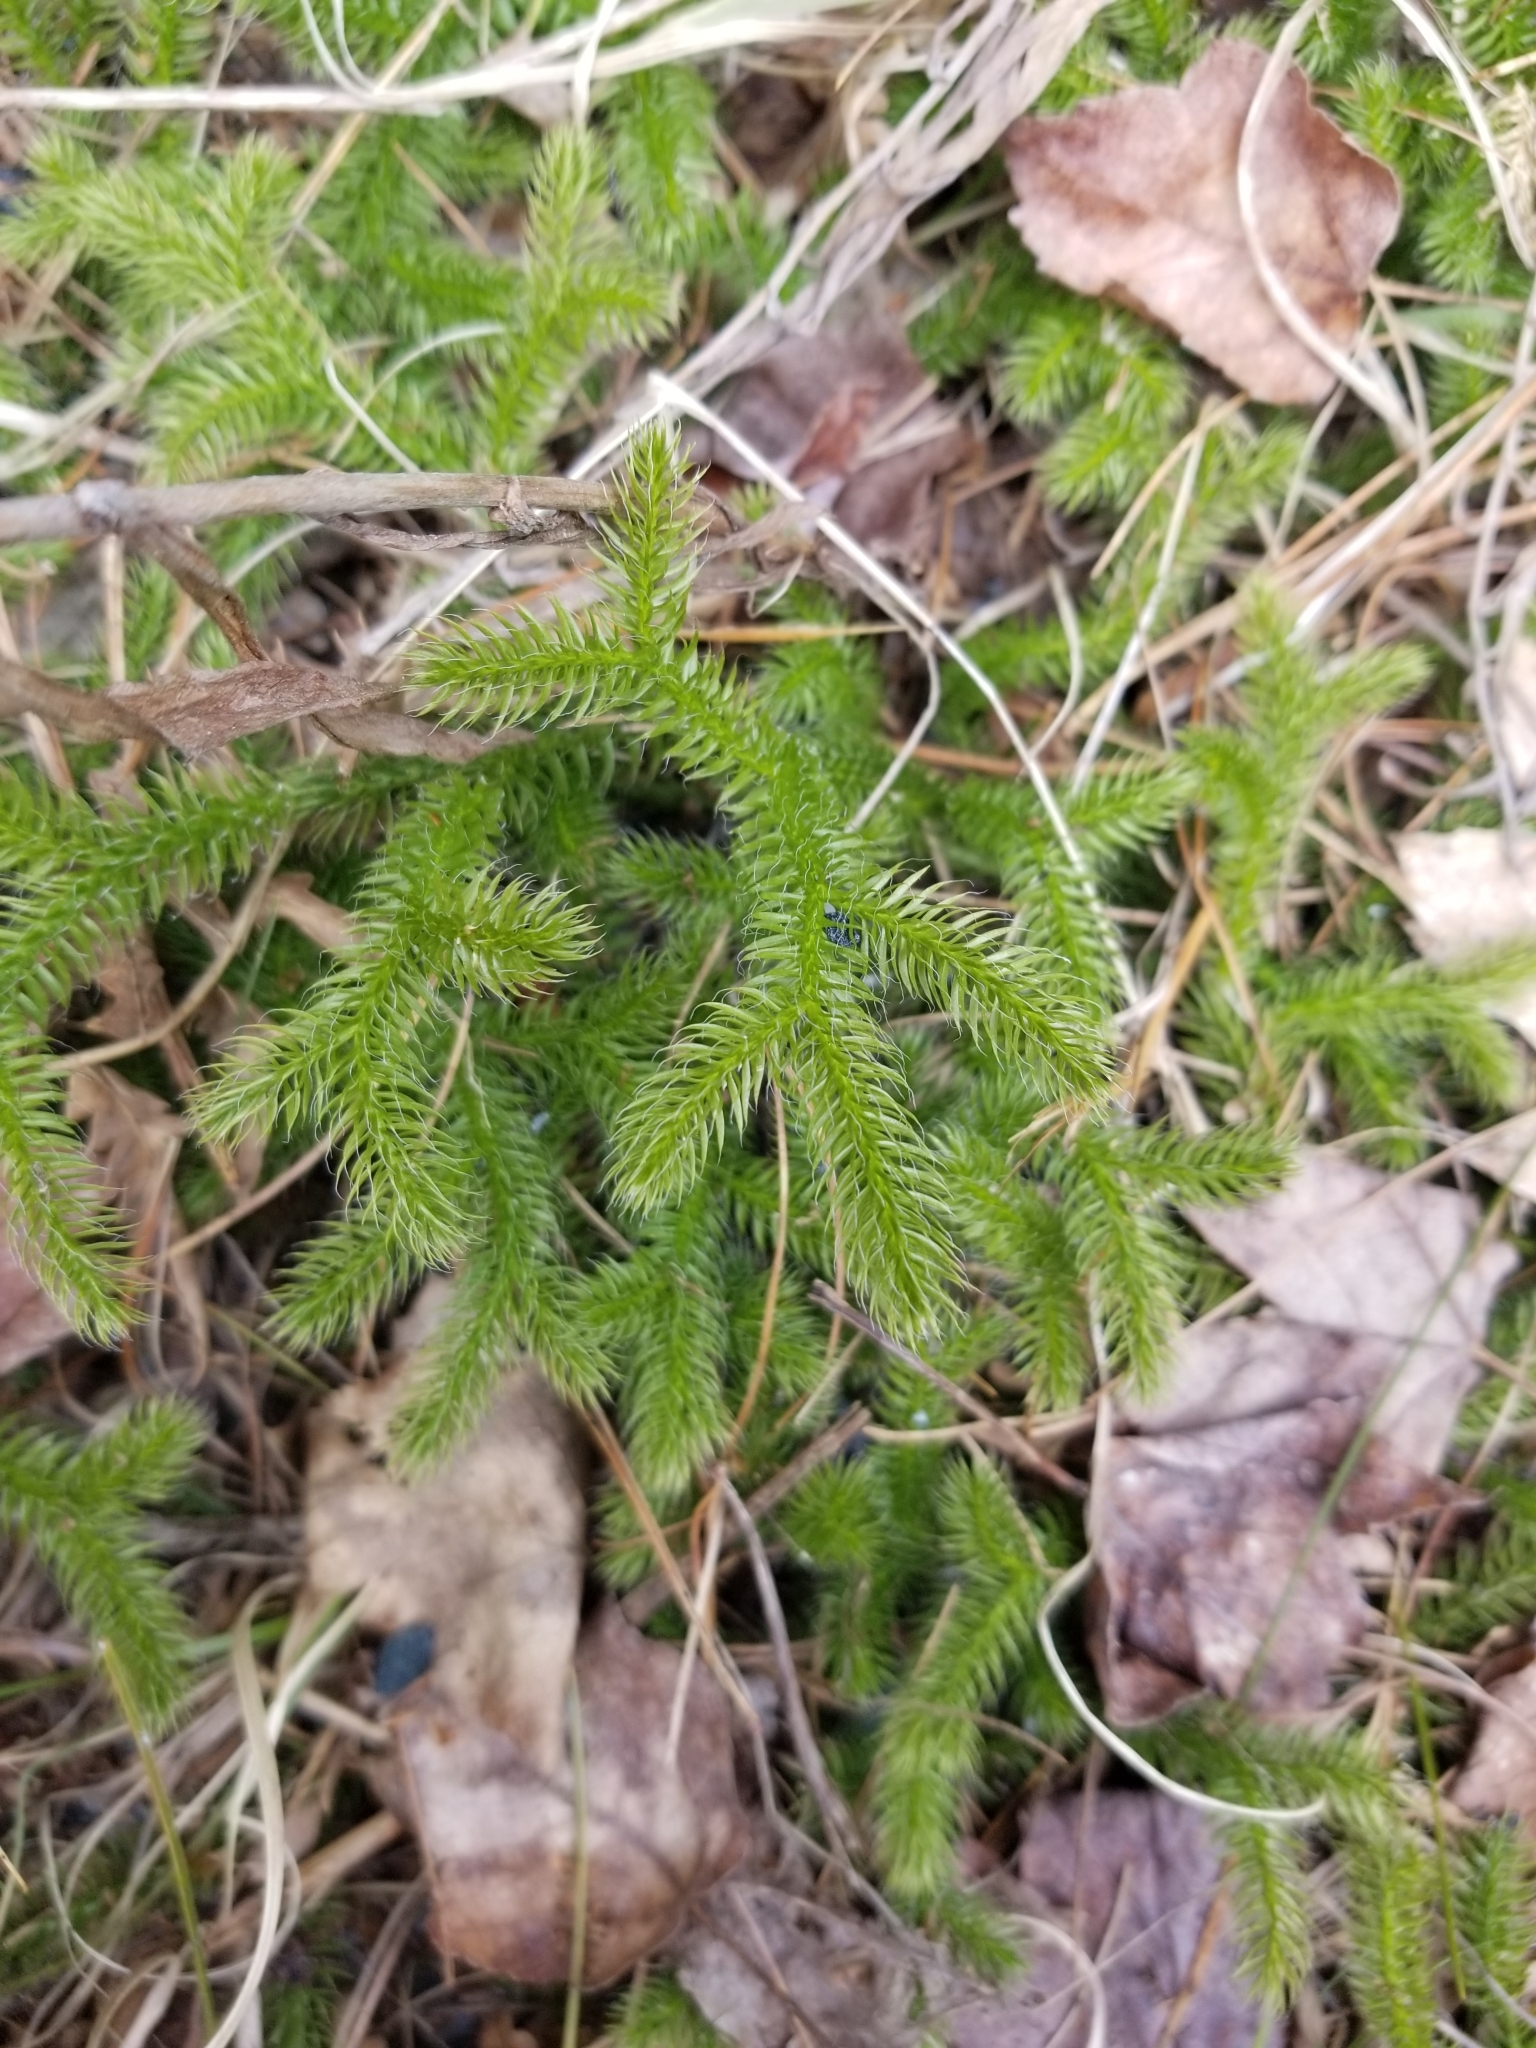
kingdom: Plantae
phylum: Tracheophyta
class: Lycopodiopsida
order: Lycopodiales
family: Lycopodiaceae
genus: Lycopodium
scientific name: Lycopodium clavatum
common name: Stag's-horn clubmoss
